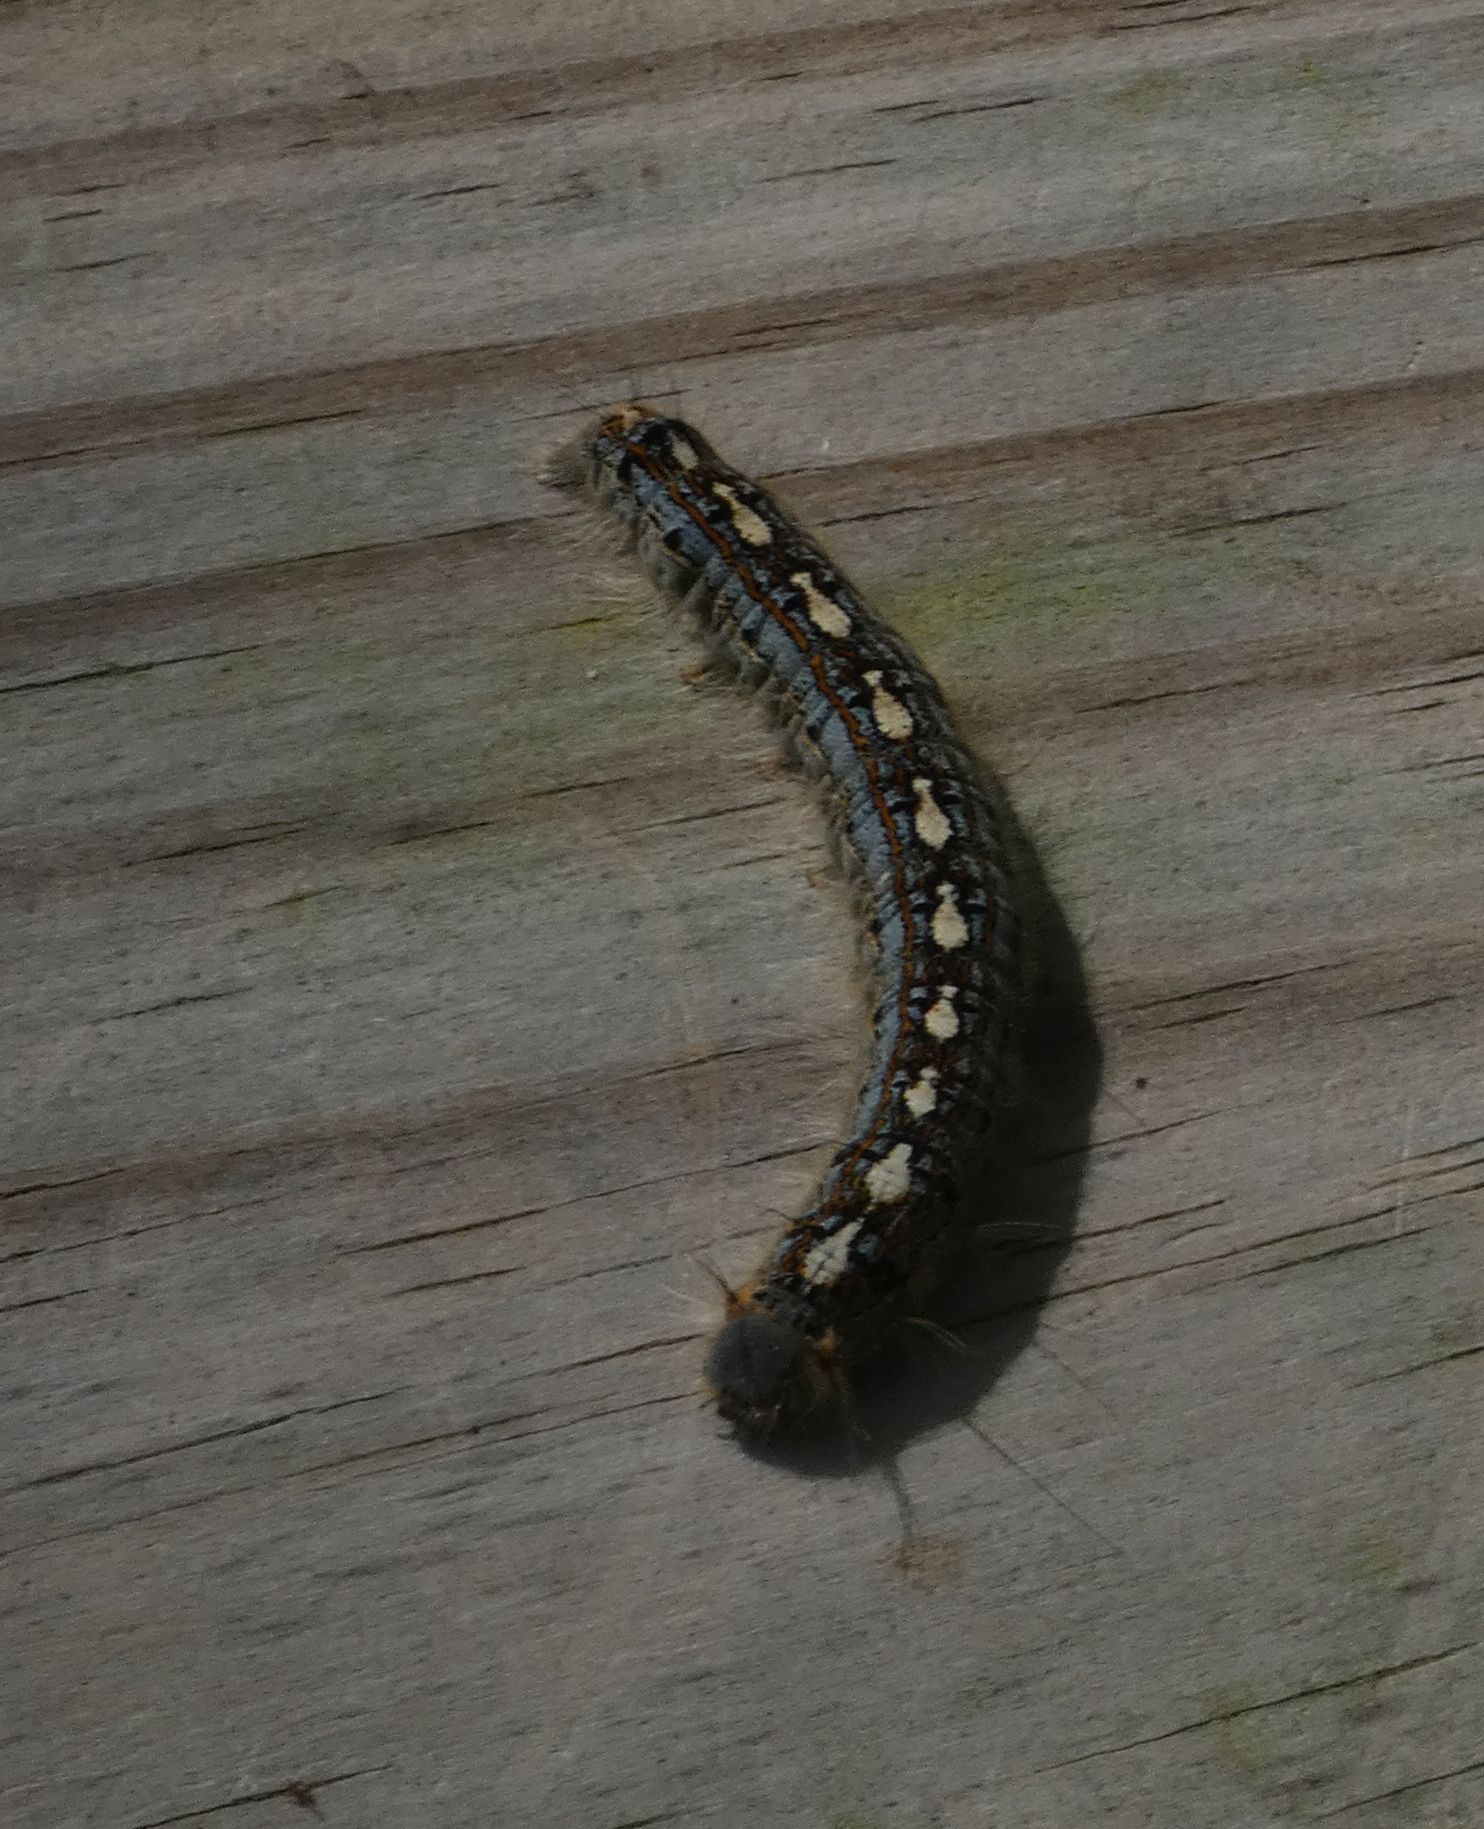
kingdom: Animalia
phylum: Arthropoda
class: Insecta
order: Lepidoptera
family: Lasiocampidae
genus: Malacosoma
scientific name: Malacosoma disstria
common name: Forest tent caterpillar
